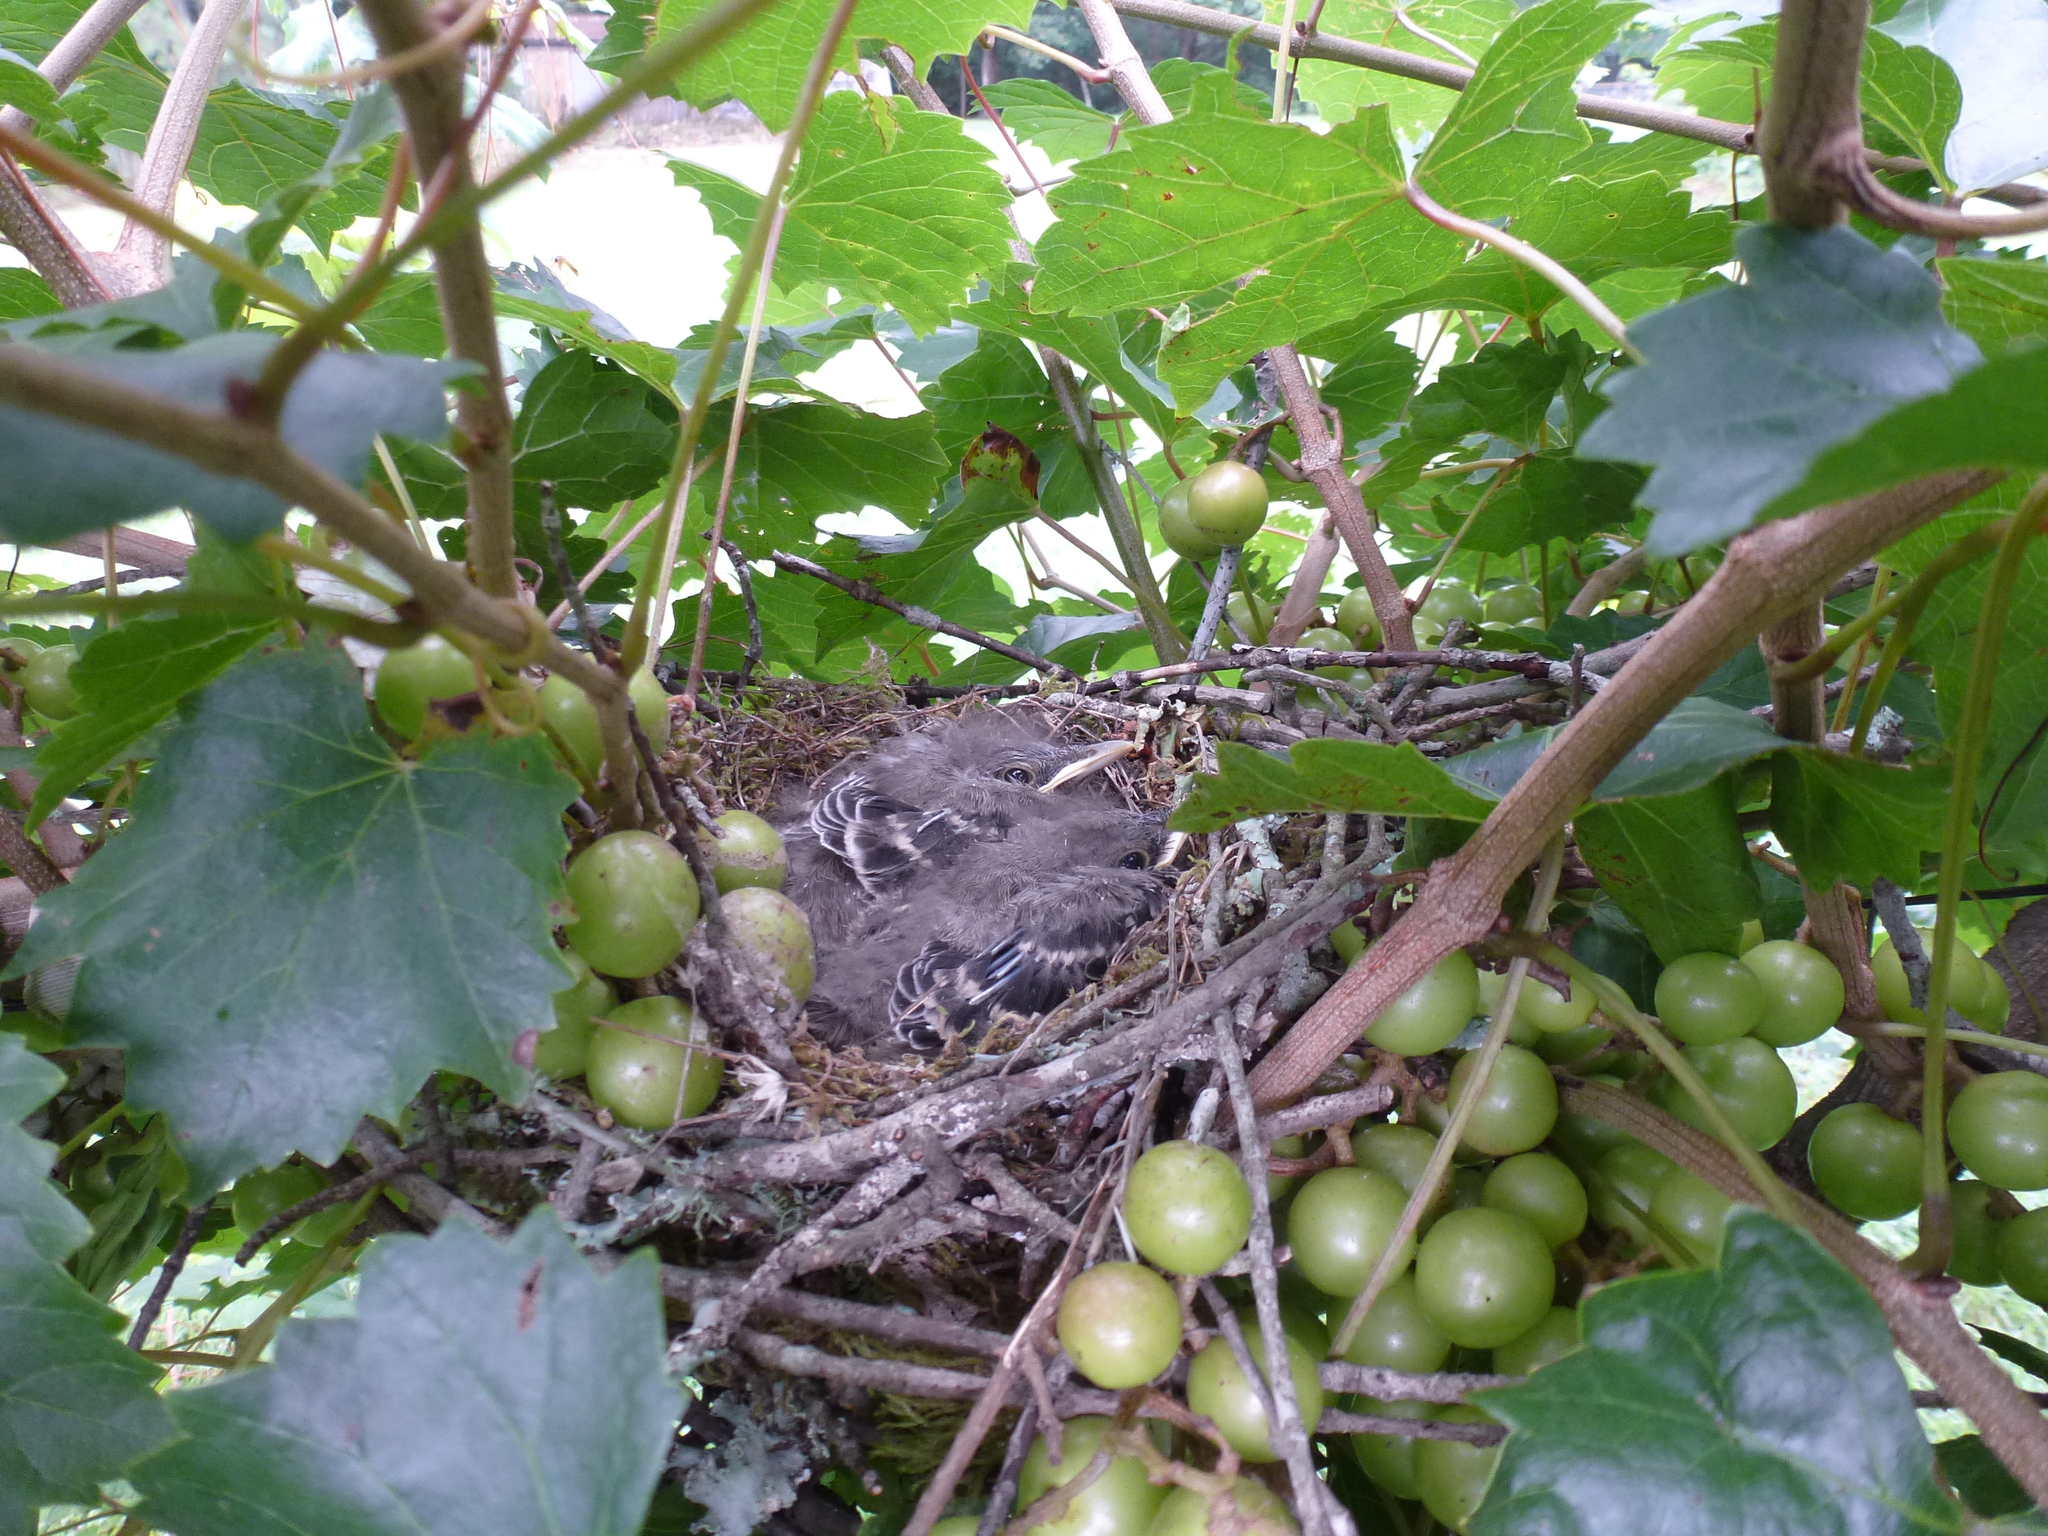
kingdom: Animalia
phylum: Chordata
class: Aves
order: Passeriformes
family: Mimidae
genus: Mimus
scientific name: Mimus polyglottos
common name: Northern mockingbird
